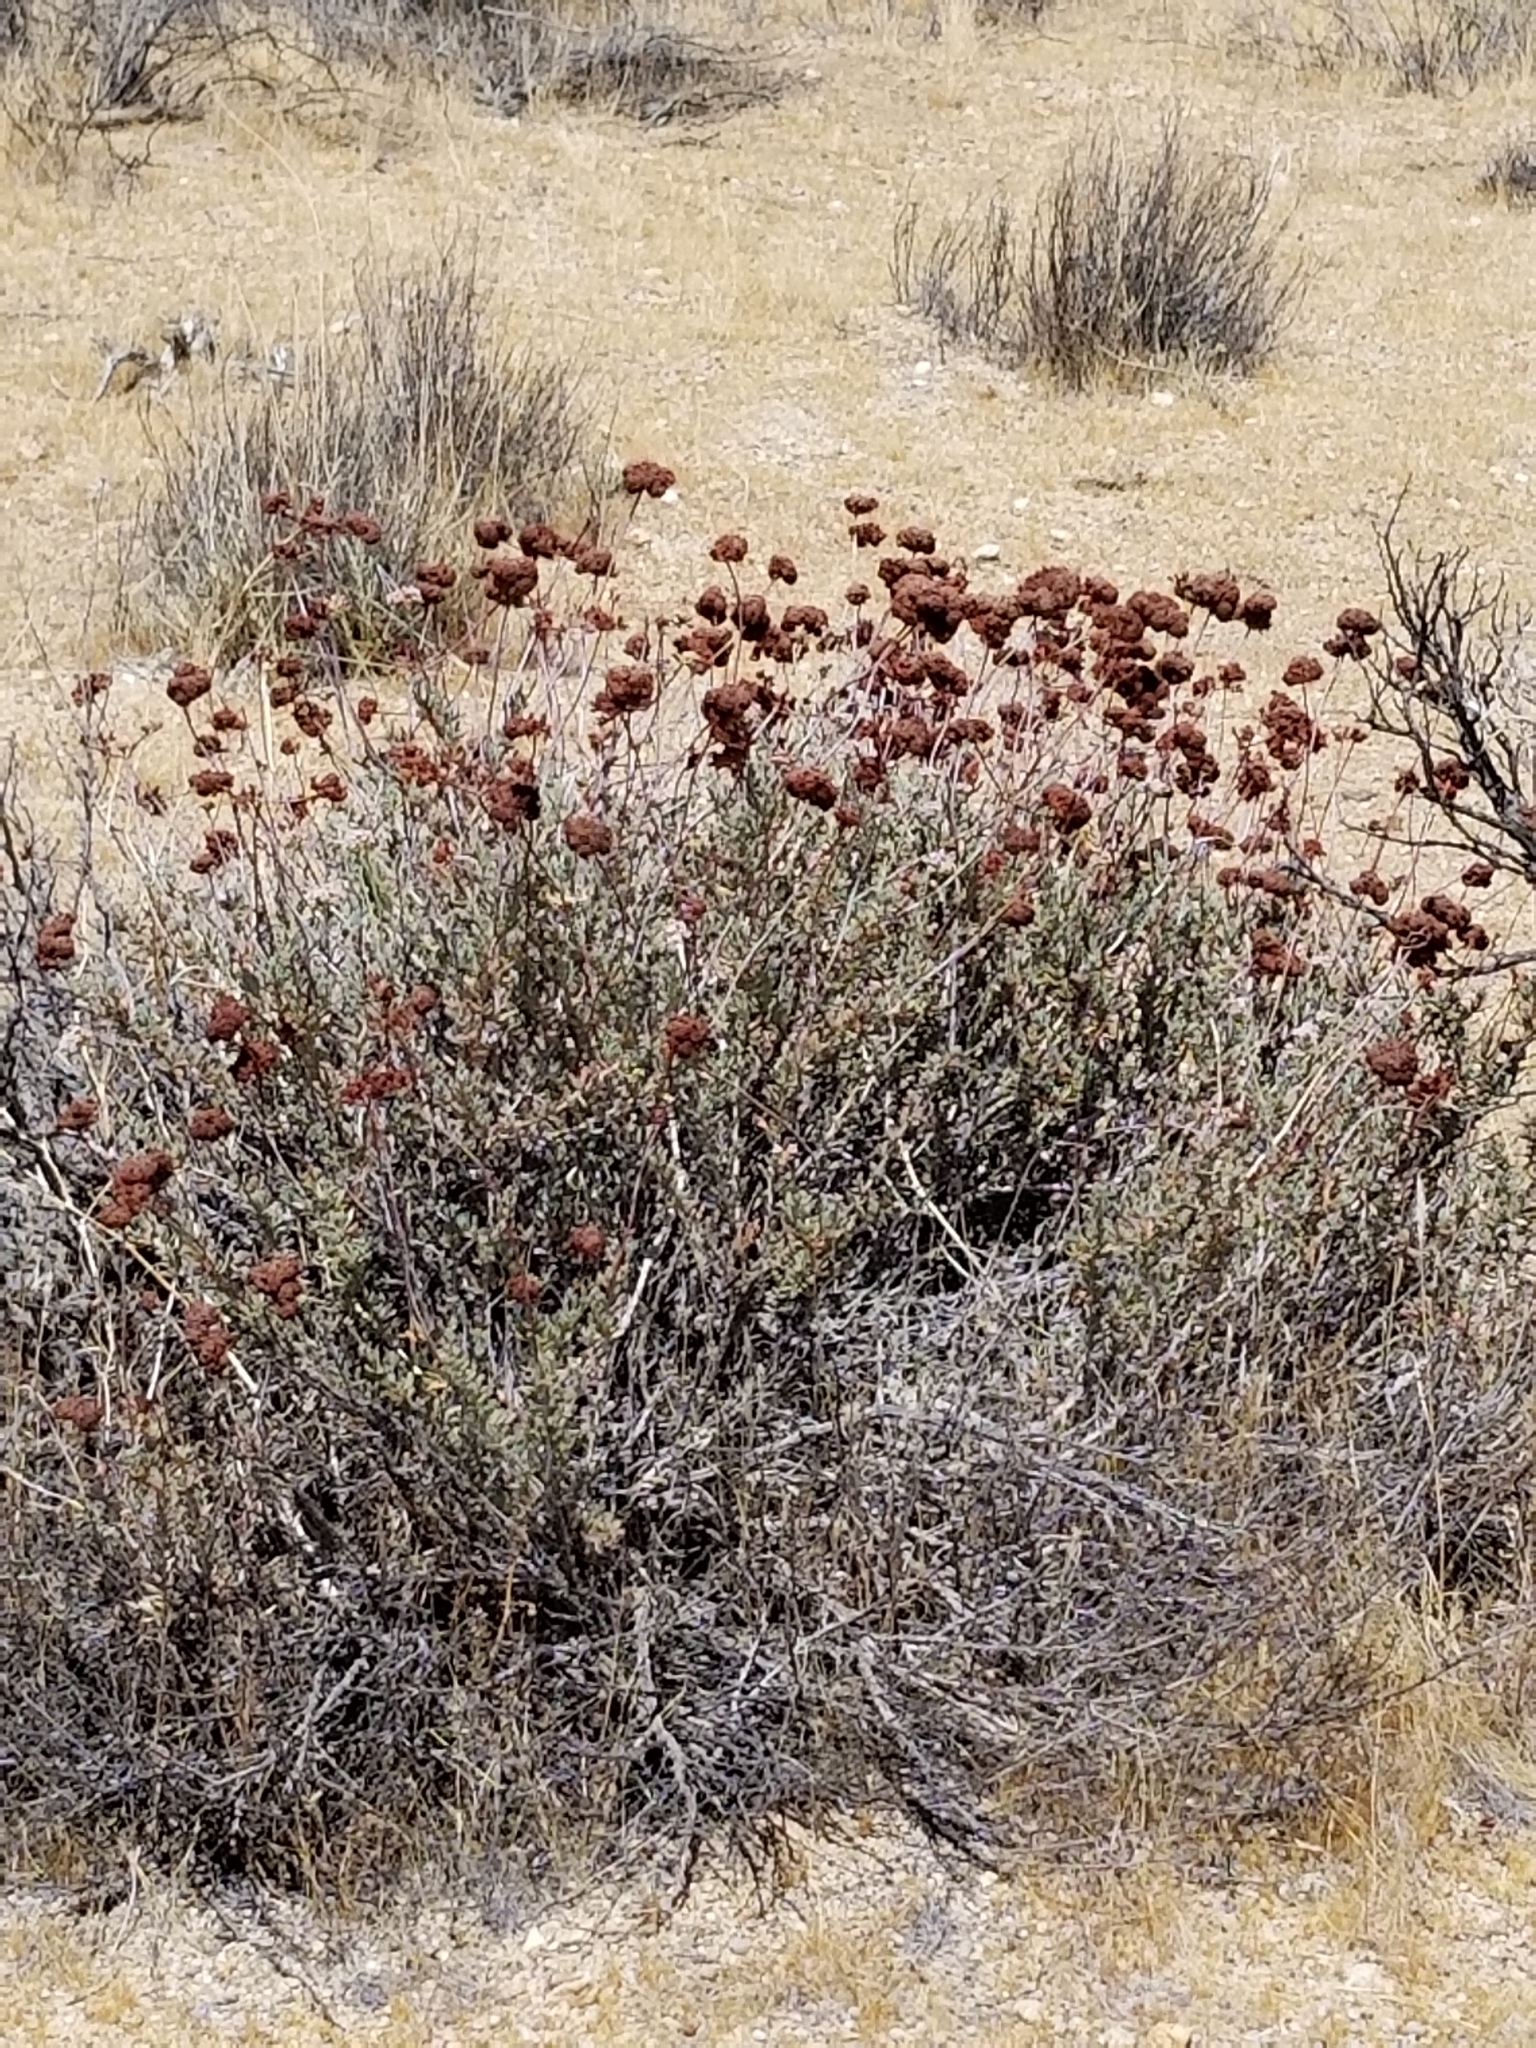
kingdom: Plantae
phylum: Tracheophyta
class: Magnoliopsida
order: Caryophyllales
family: Polygonaceae
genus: Eriogonum
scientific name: Eriogonum fasciculatum
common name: California wild buckwheat
